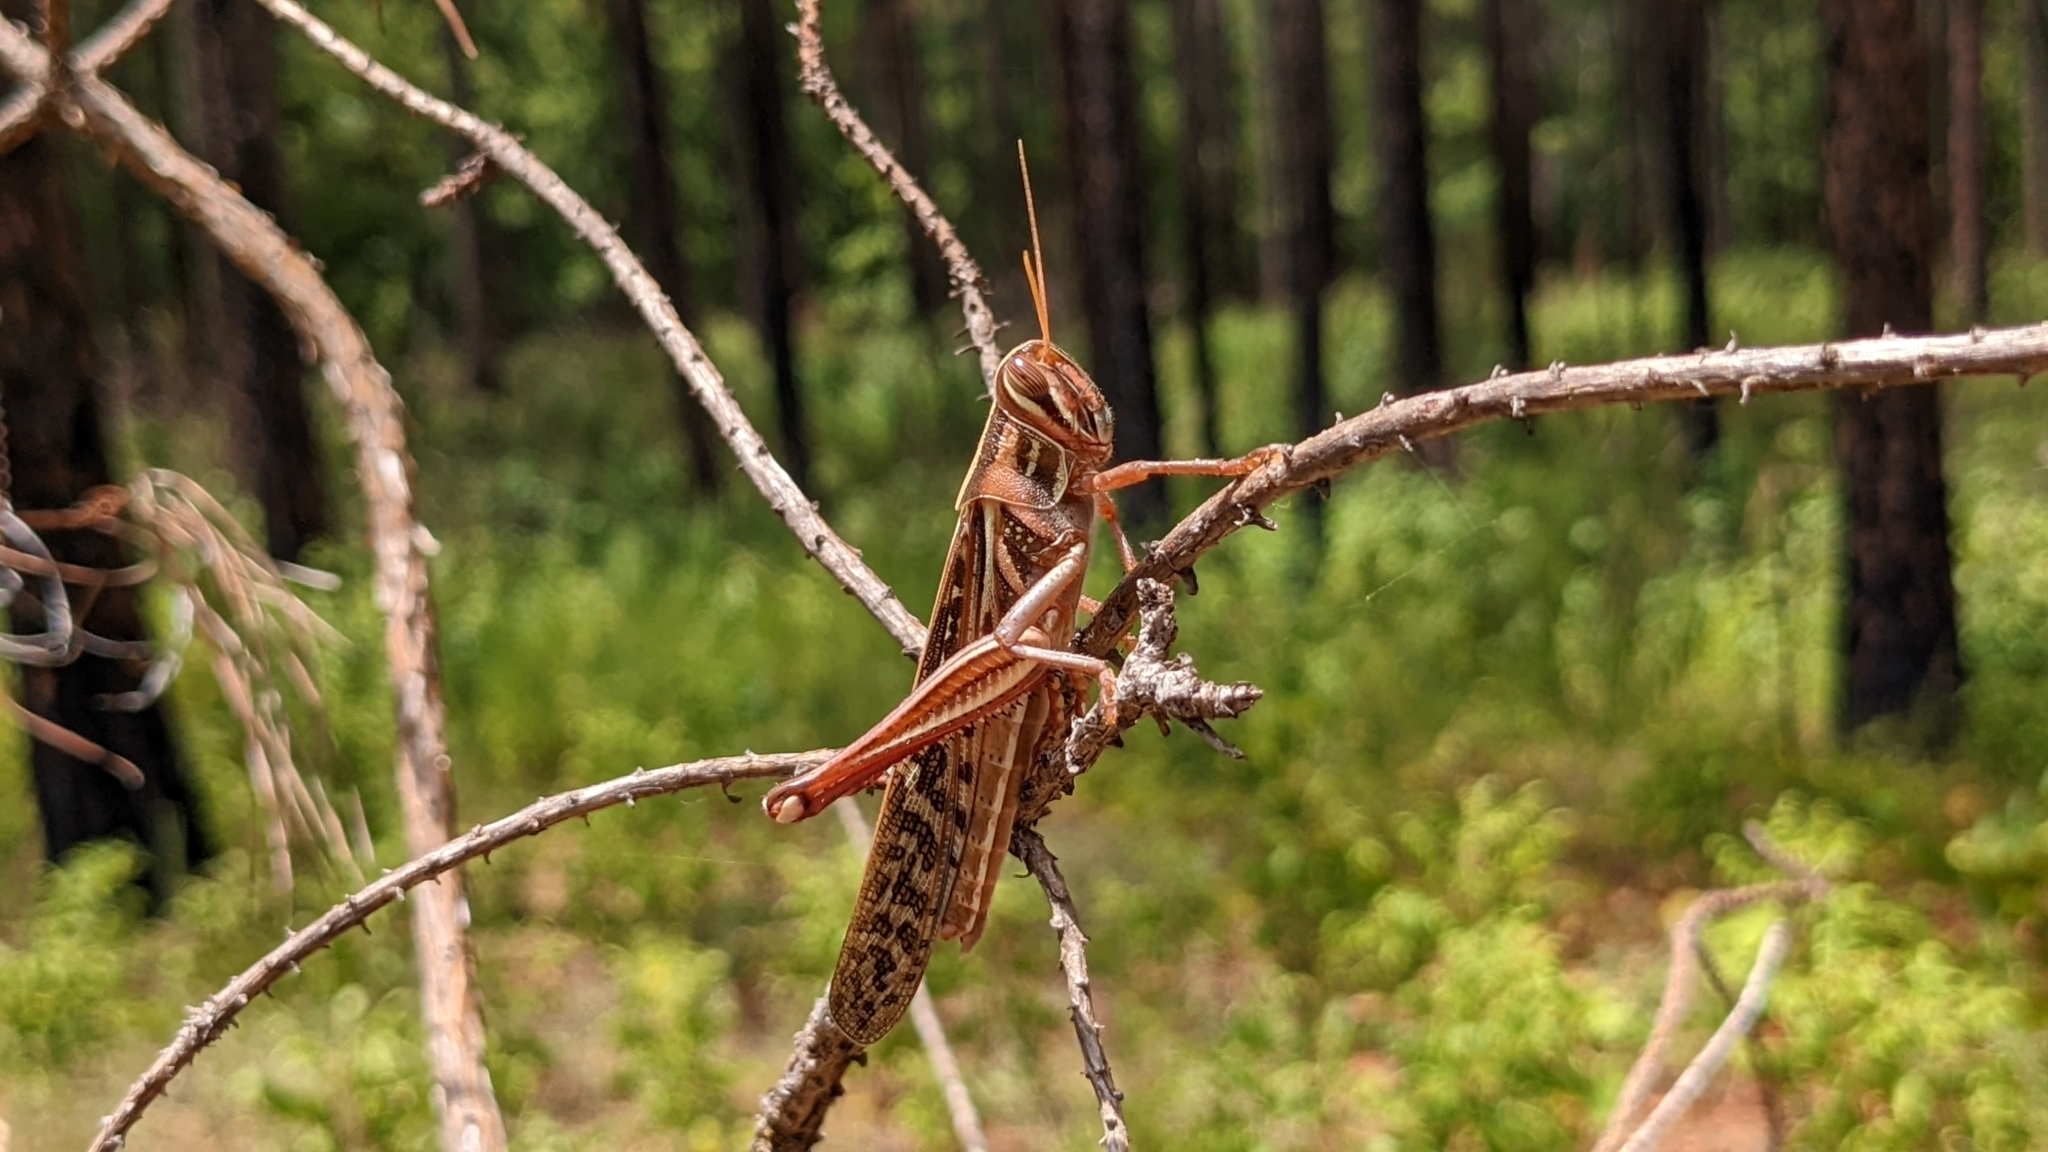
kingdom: Animalia
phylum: Arthropoda
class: Insecta
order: Orthoptera
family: Acrididae
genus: Schistocerca
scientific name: Schistocerca americana
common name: American bird locust
